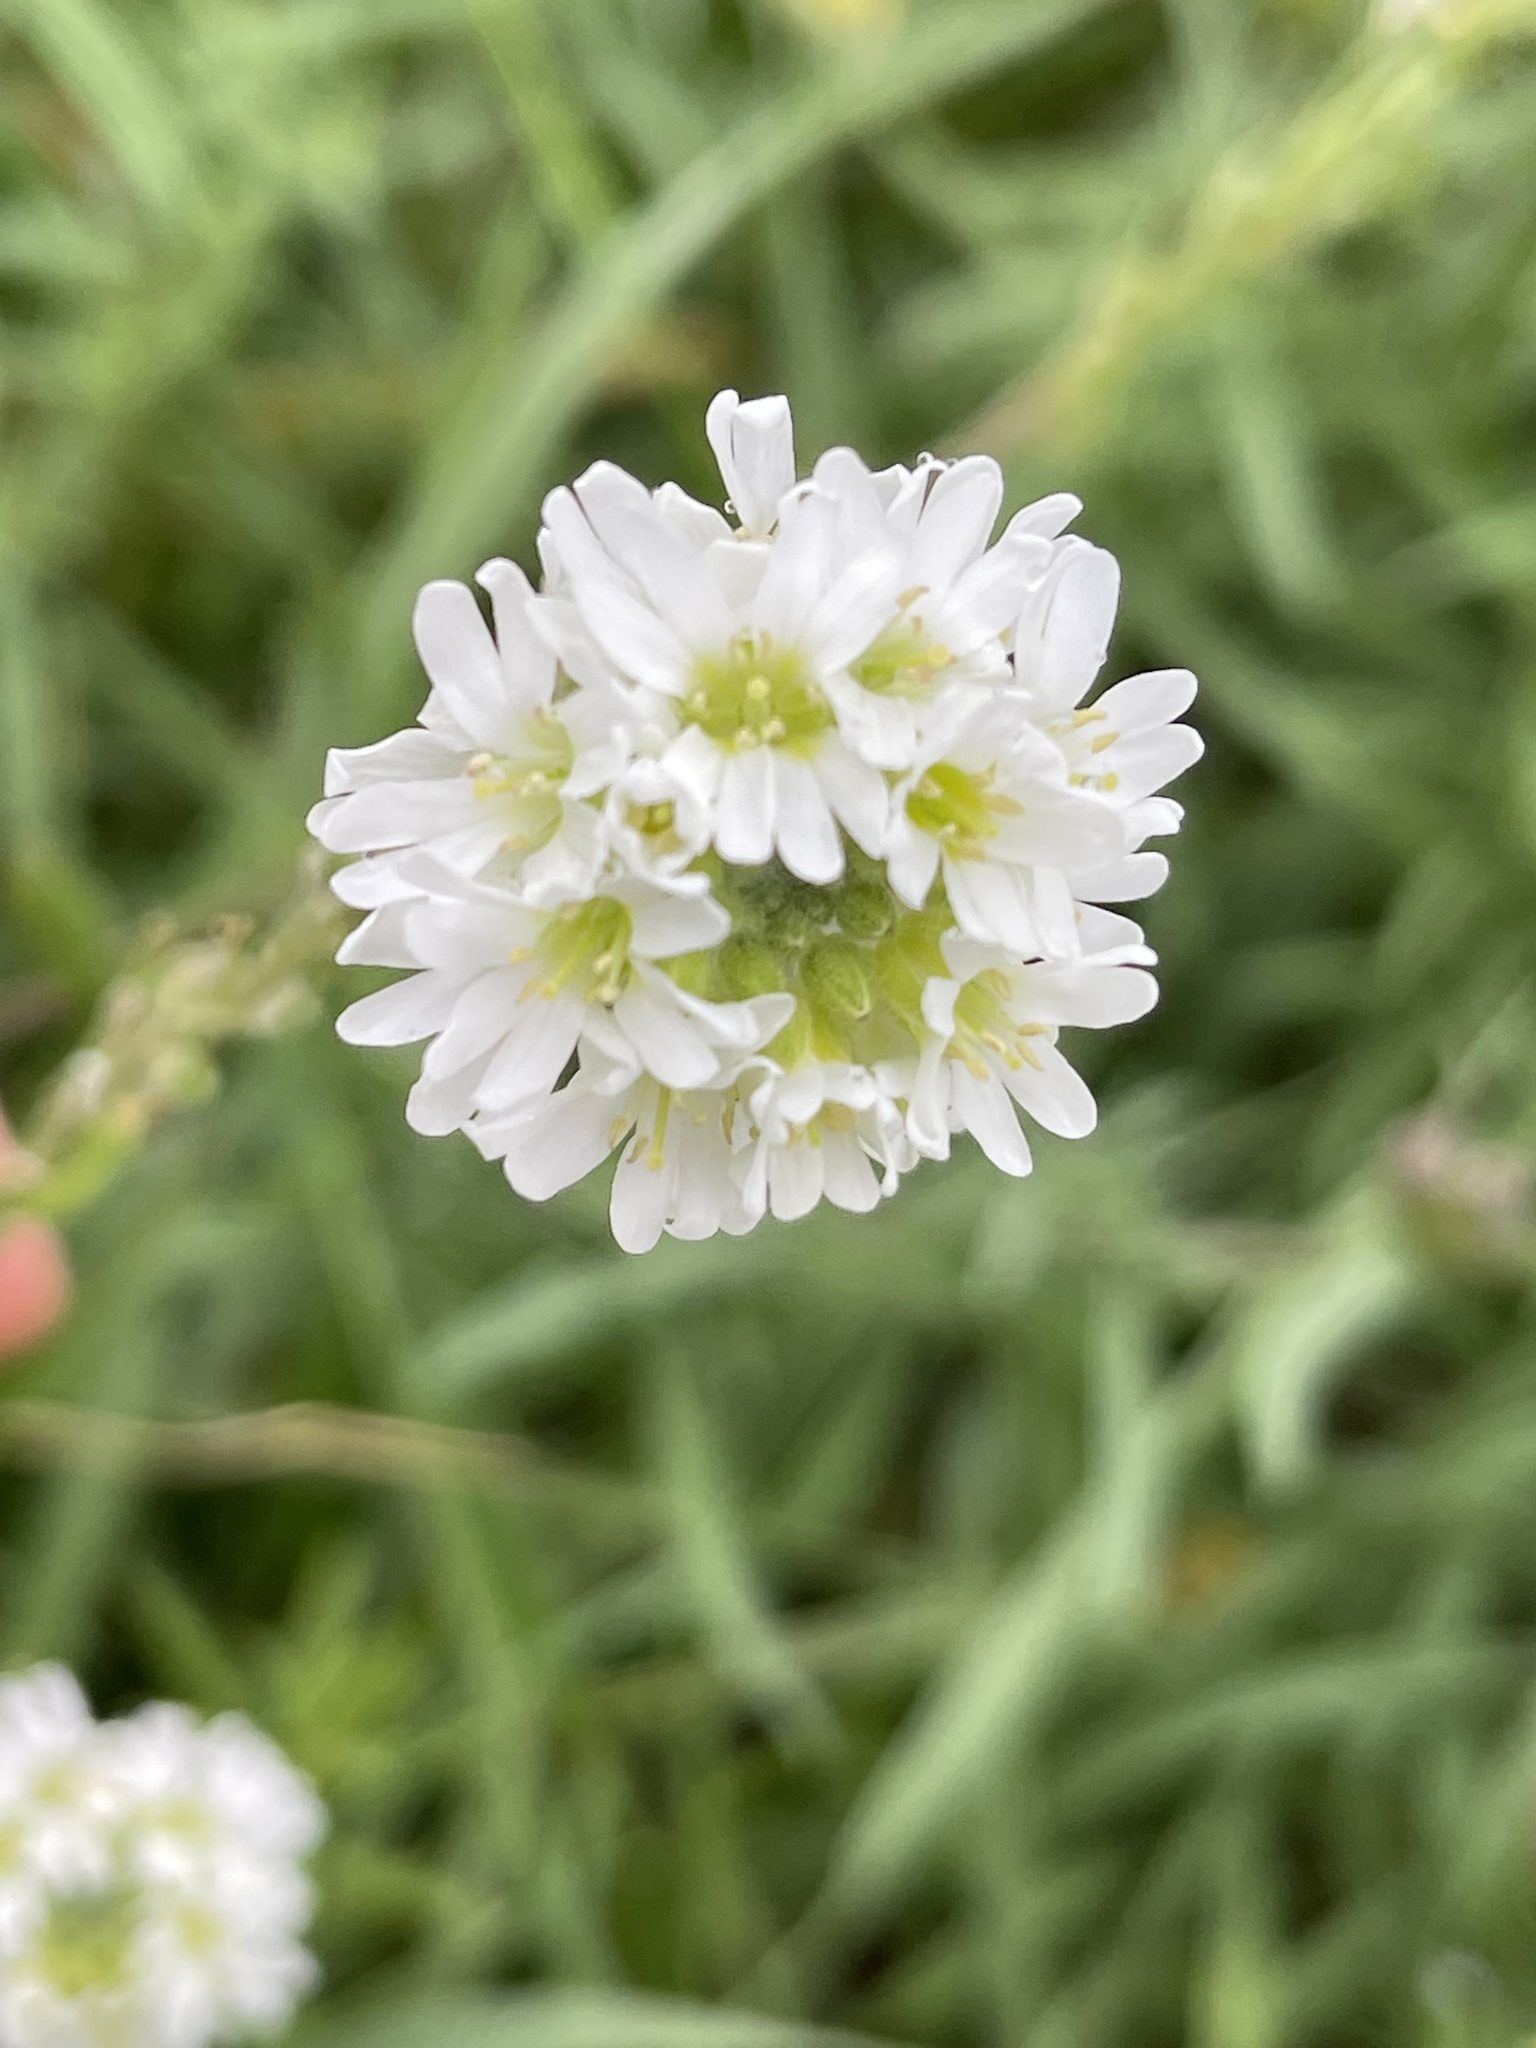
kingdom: Plantae
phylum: Tracheophyta
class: Magnoliopsida
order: Brassicales
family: Brassicaceae
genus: Berteroa
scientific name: Berteroa incana
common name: Hoary alison
